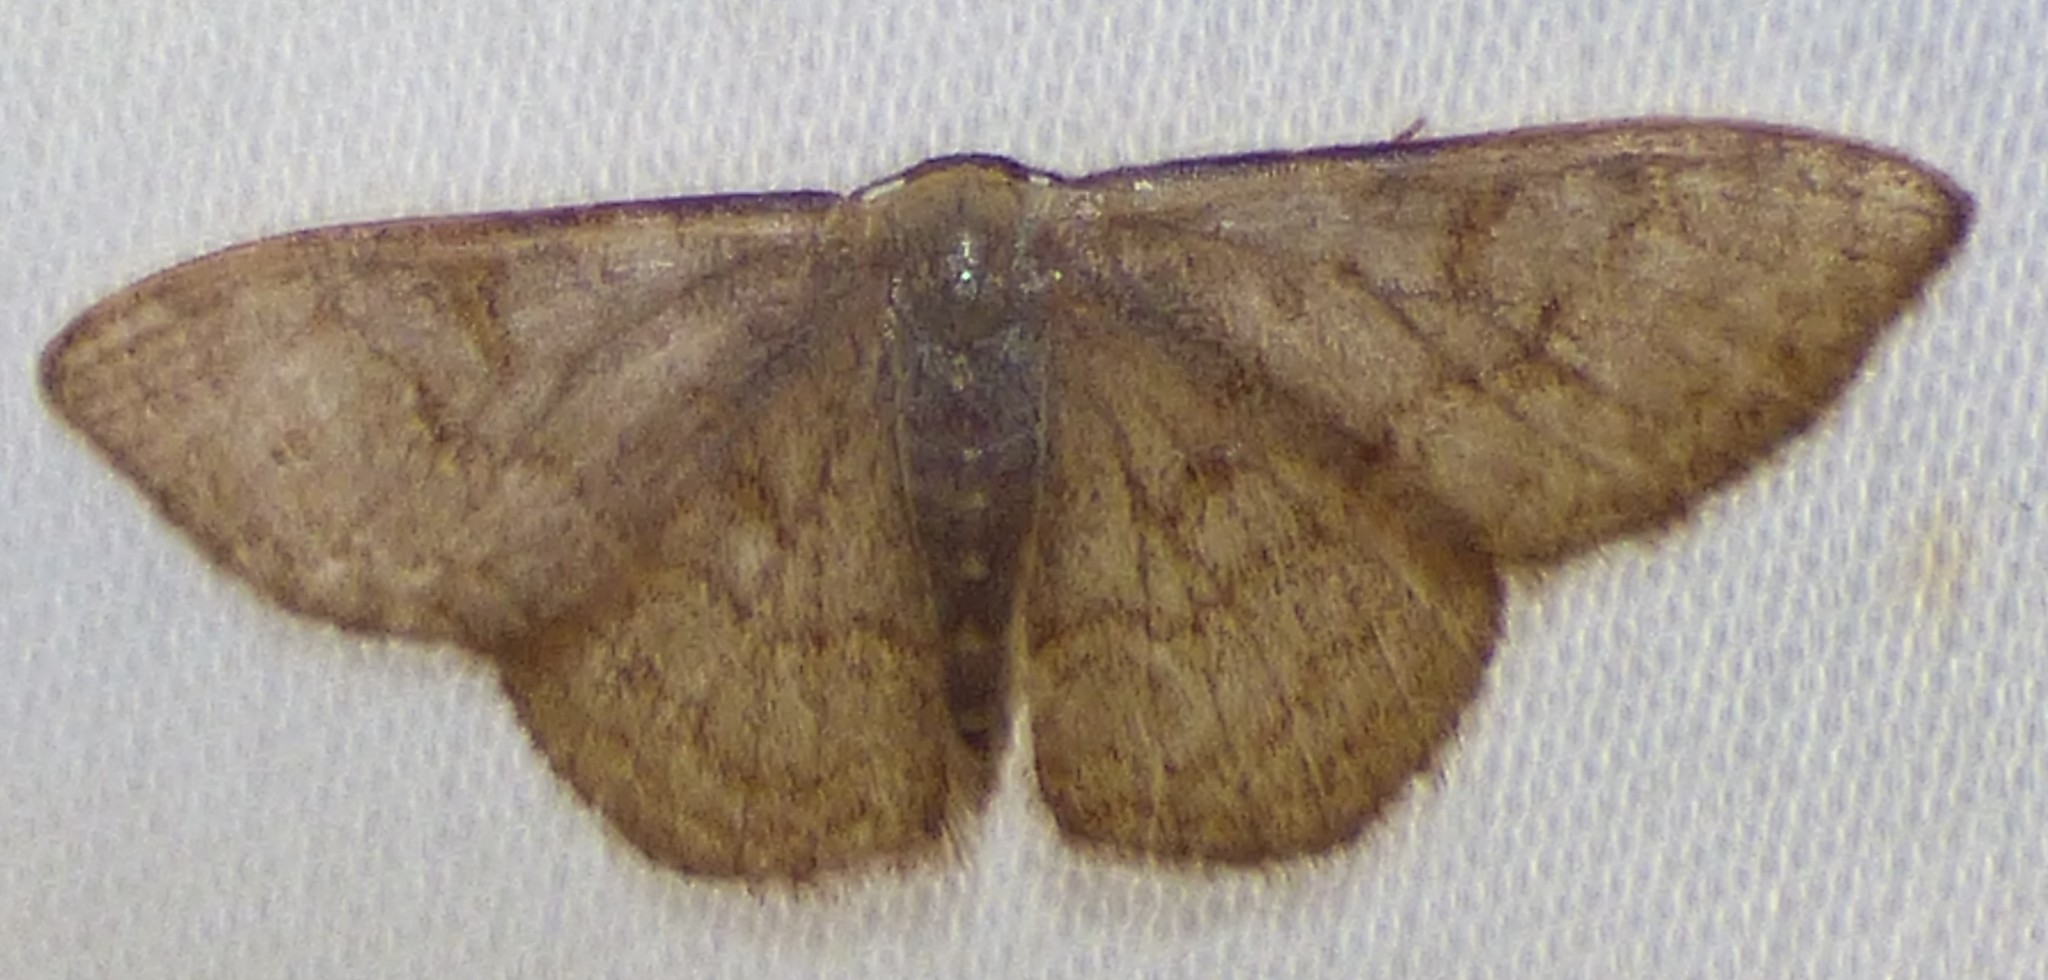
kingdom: Animalia
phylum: Arthropoda
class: Insecta
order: Lepidoptera
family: Geometridae
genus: Leptostales
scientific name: Leptostales pannaria
